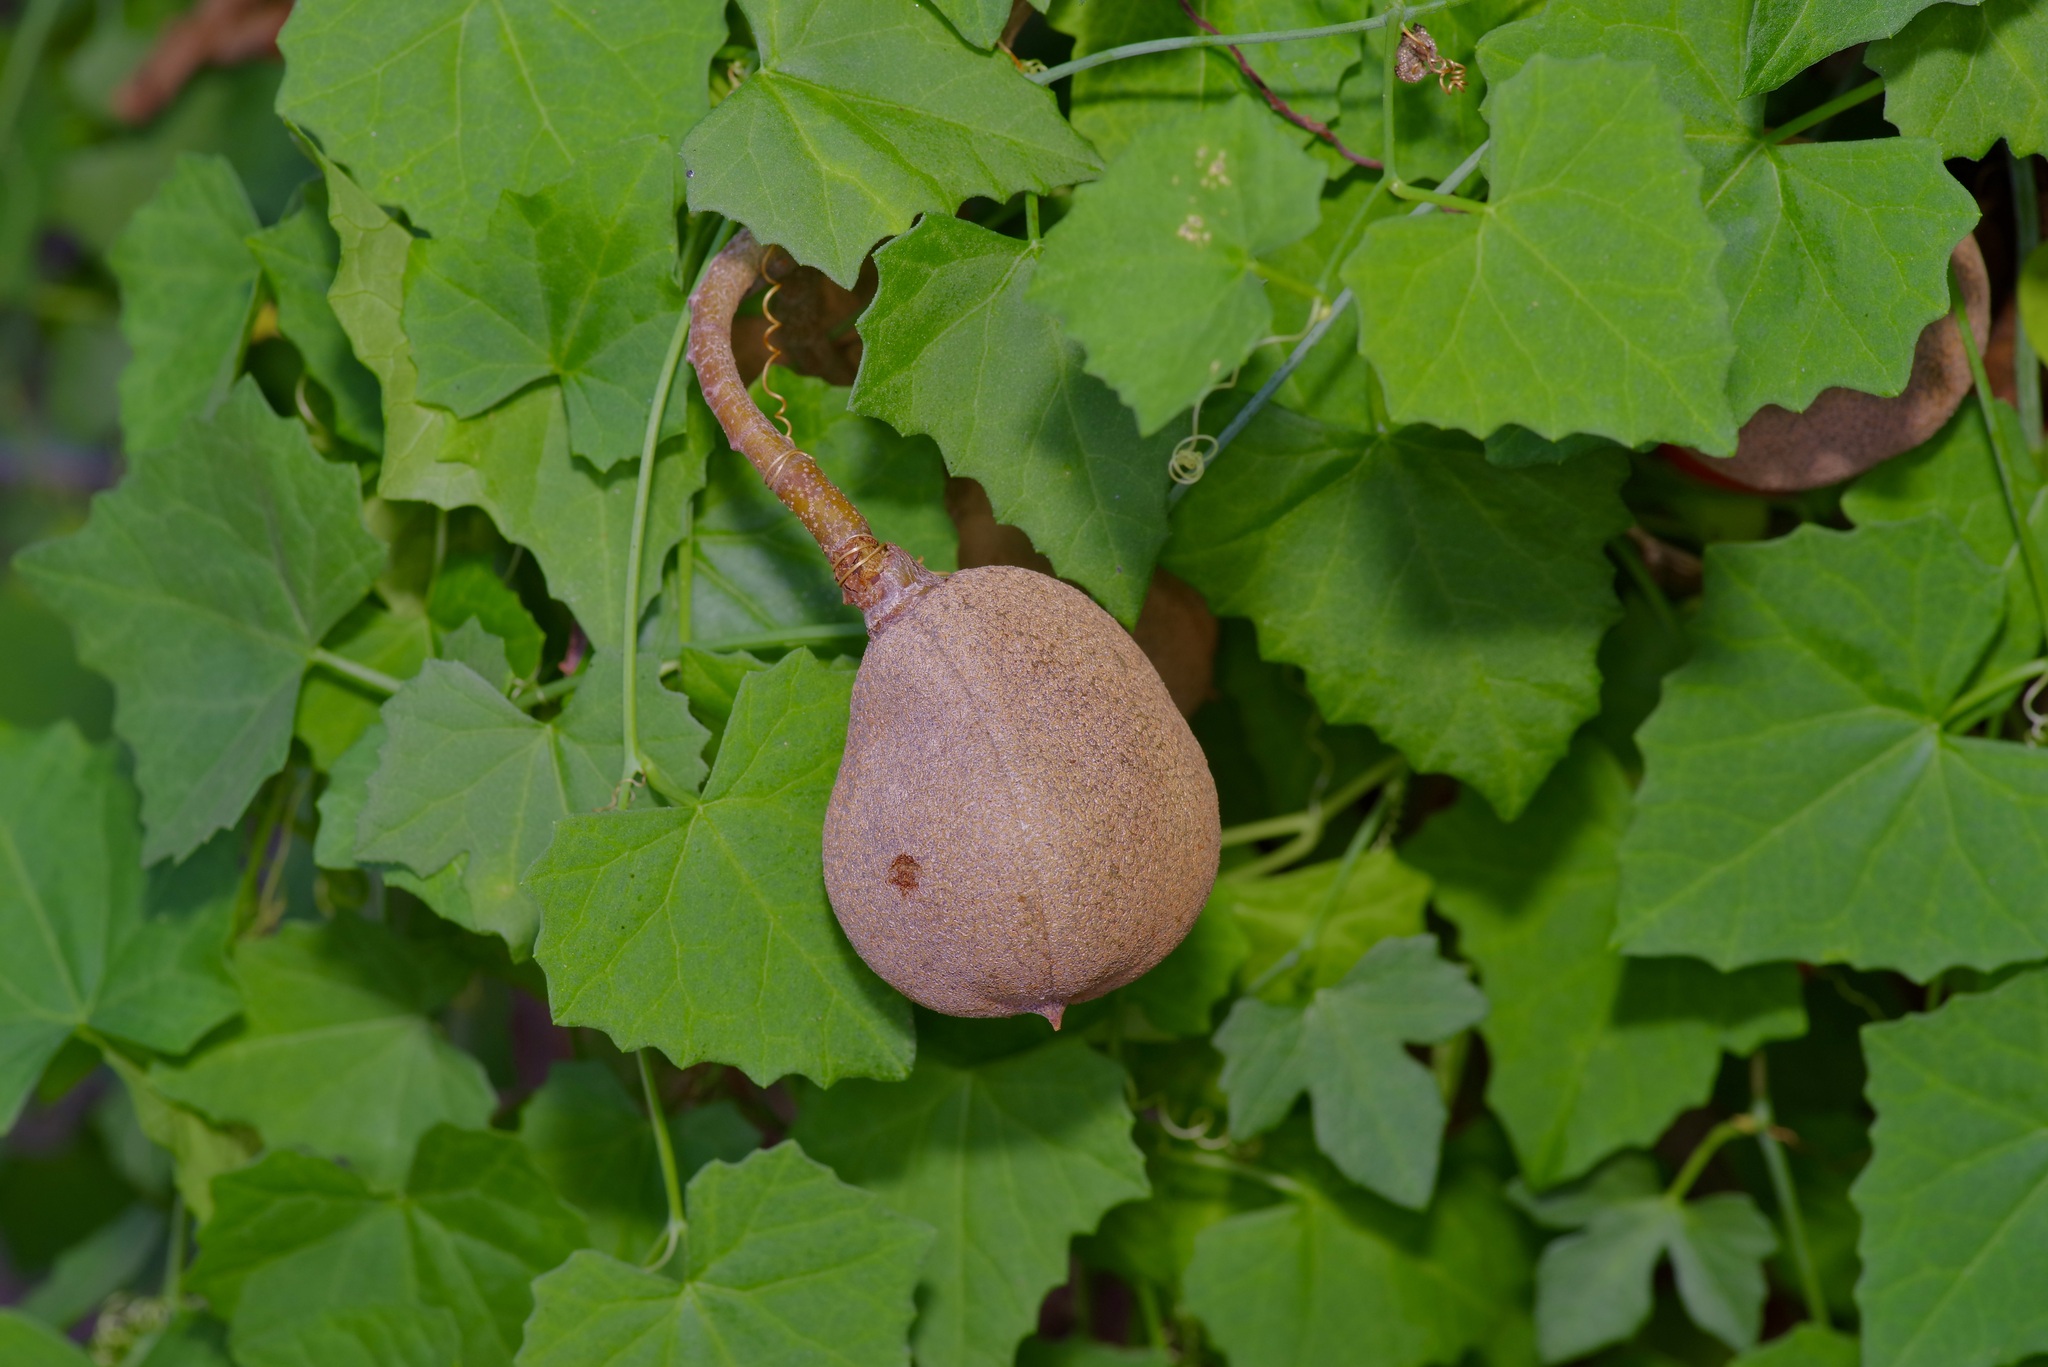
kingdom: Plantae
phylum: Tracheophyta
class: Magnoliopsida
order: Sapindales
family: Sapindaceae
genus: Aesculus
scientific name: Aesculus pavia
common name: Red buckeye
